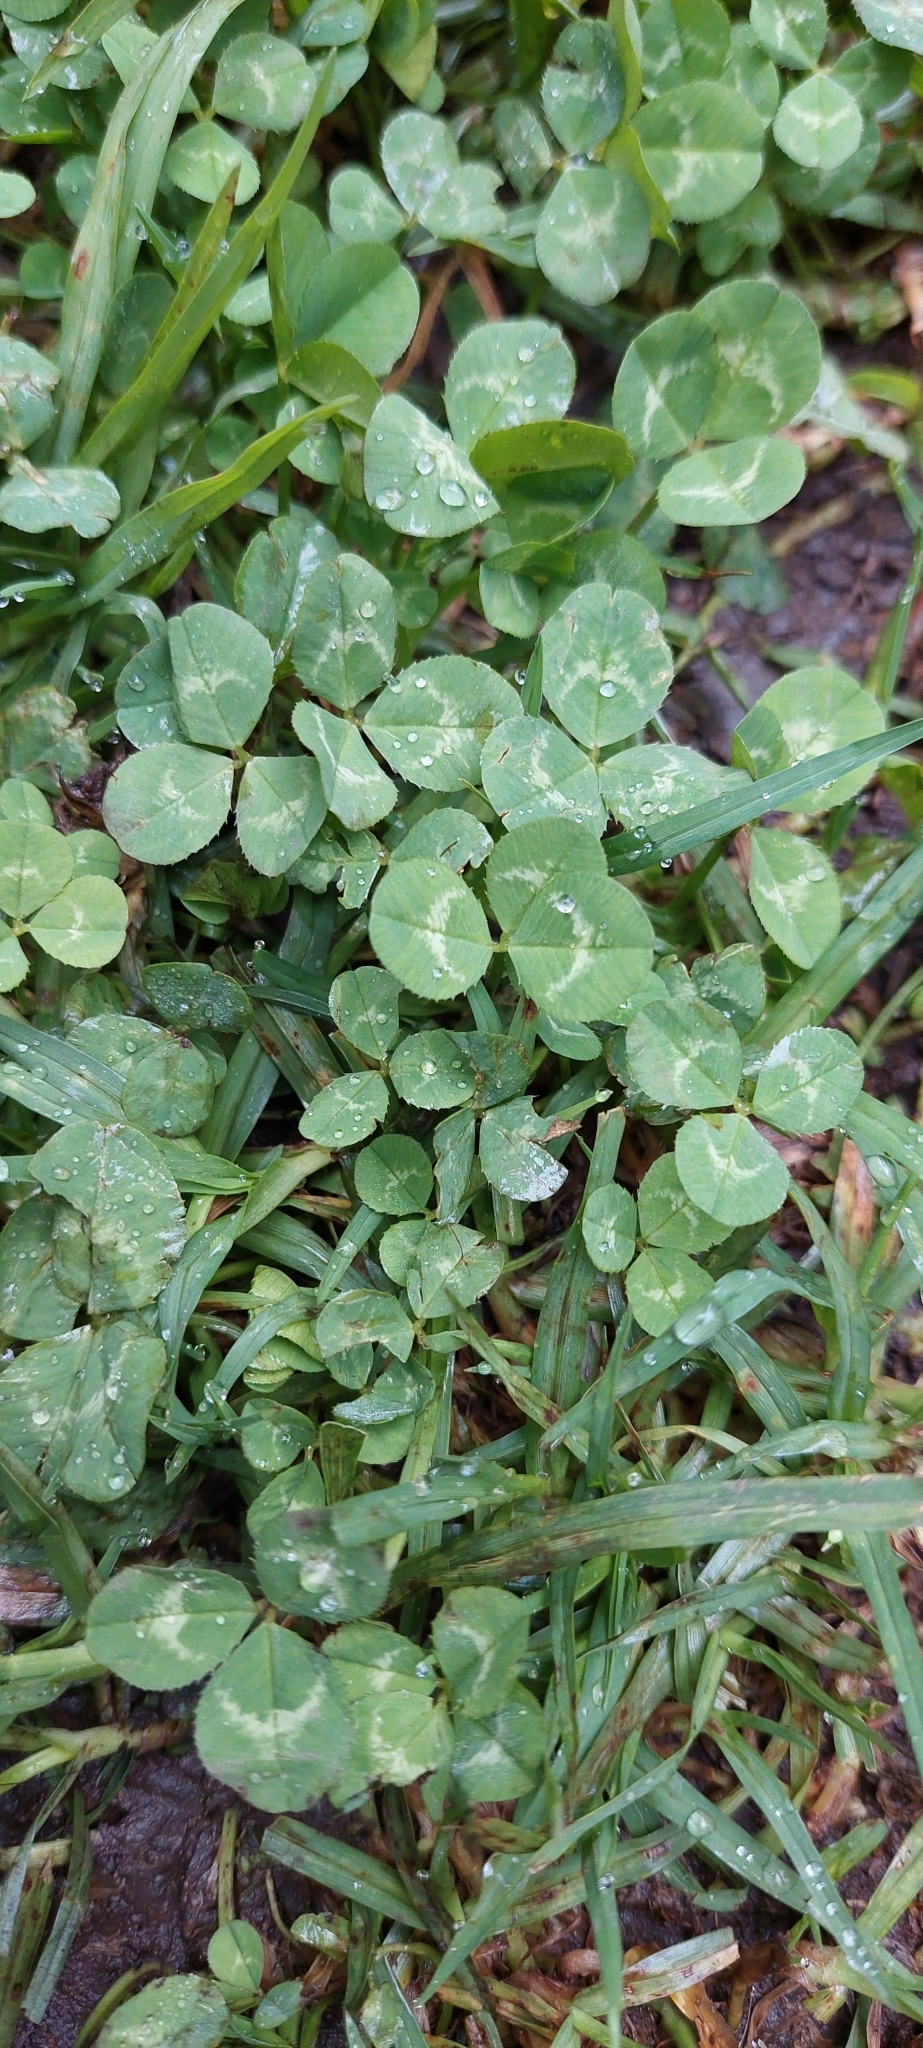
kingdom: Plantae
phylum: Tracheophyta
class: Magnoliopsida
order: Fabales
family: Fabaceae
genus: Trifolium
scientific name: Trifolium repens
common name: White clover
